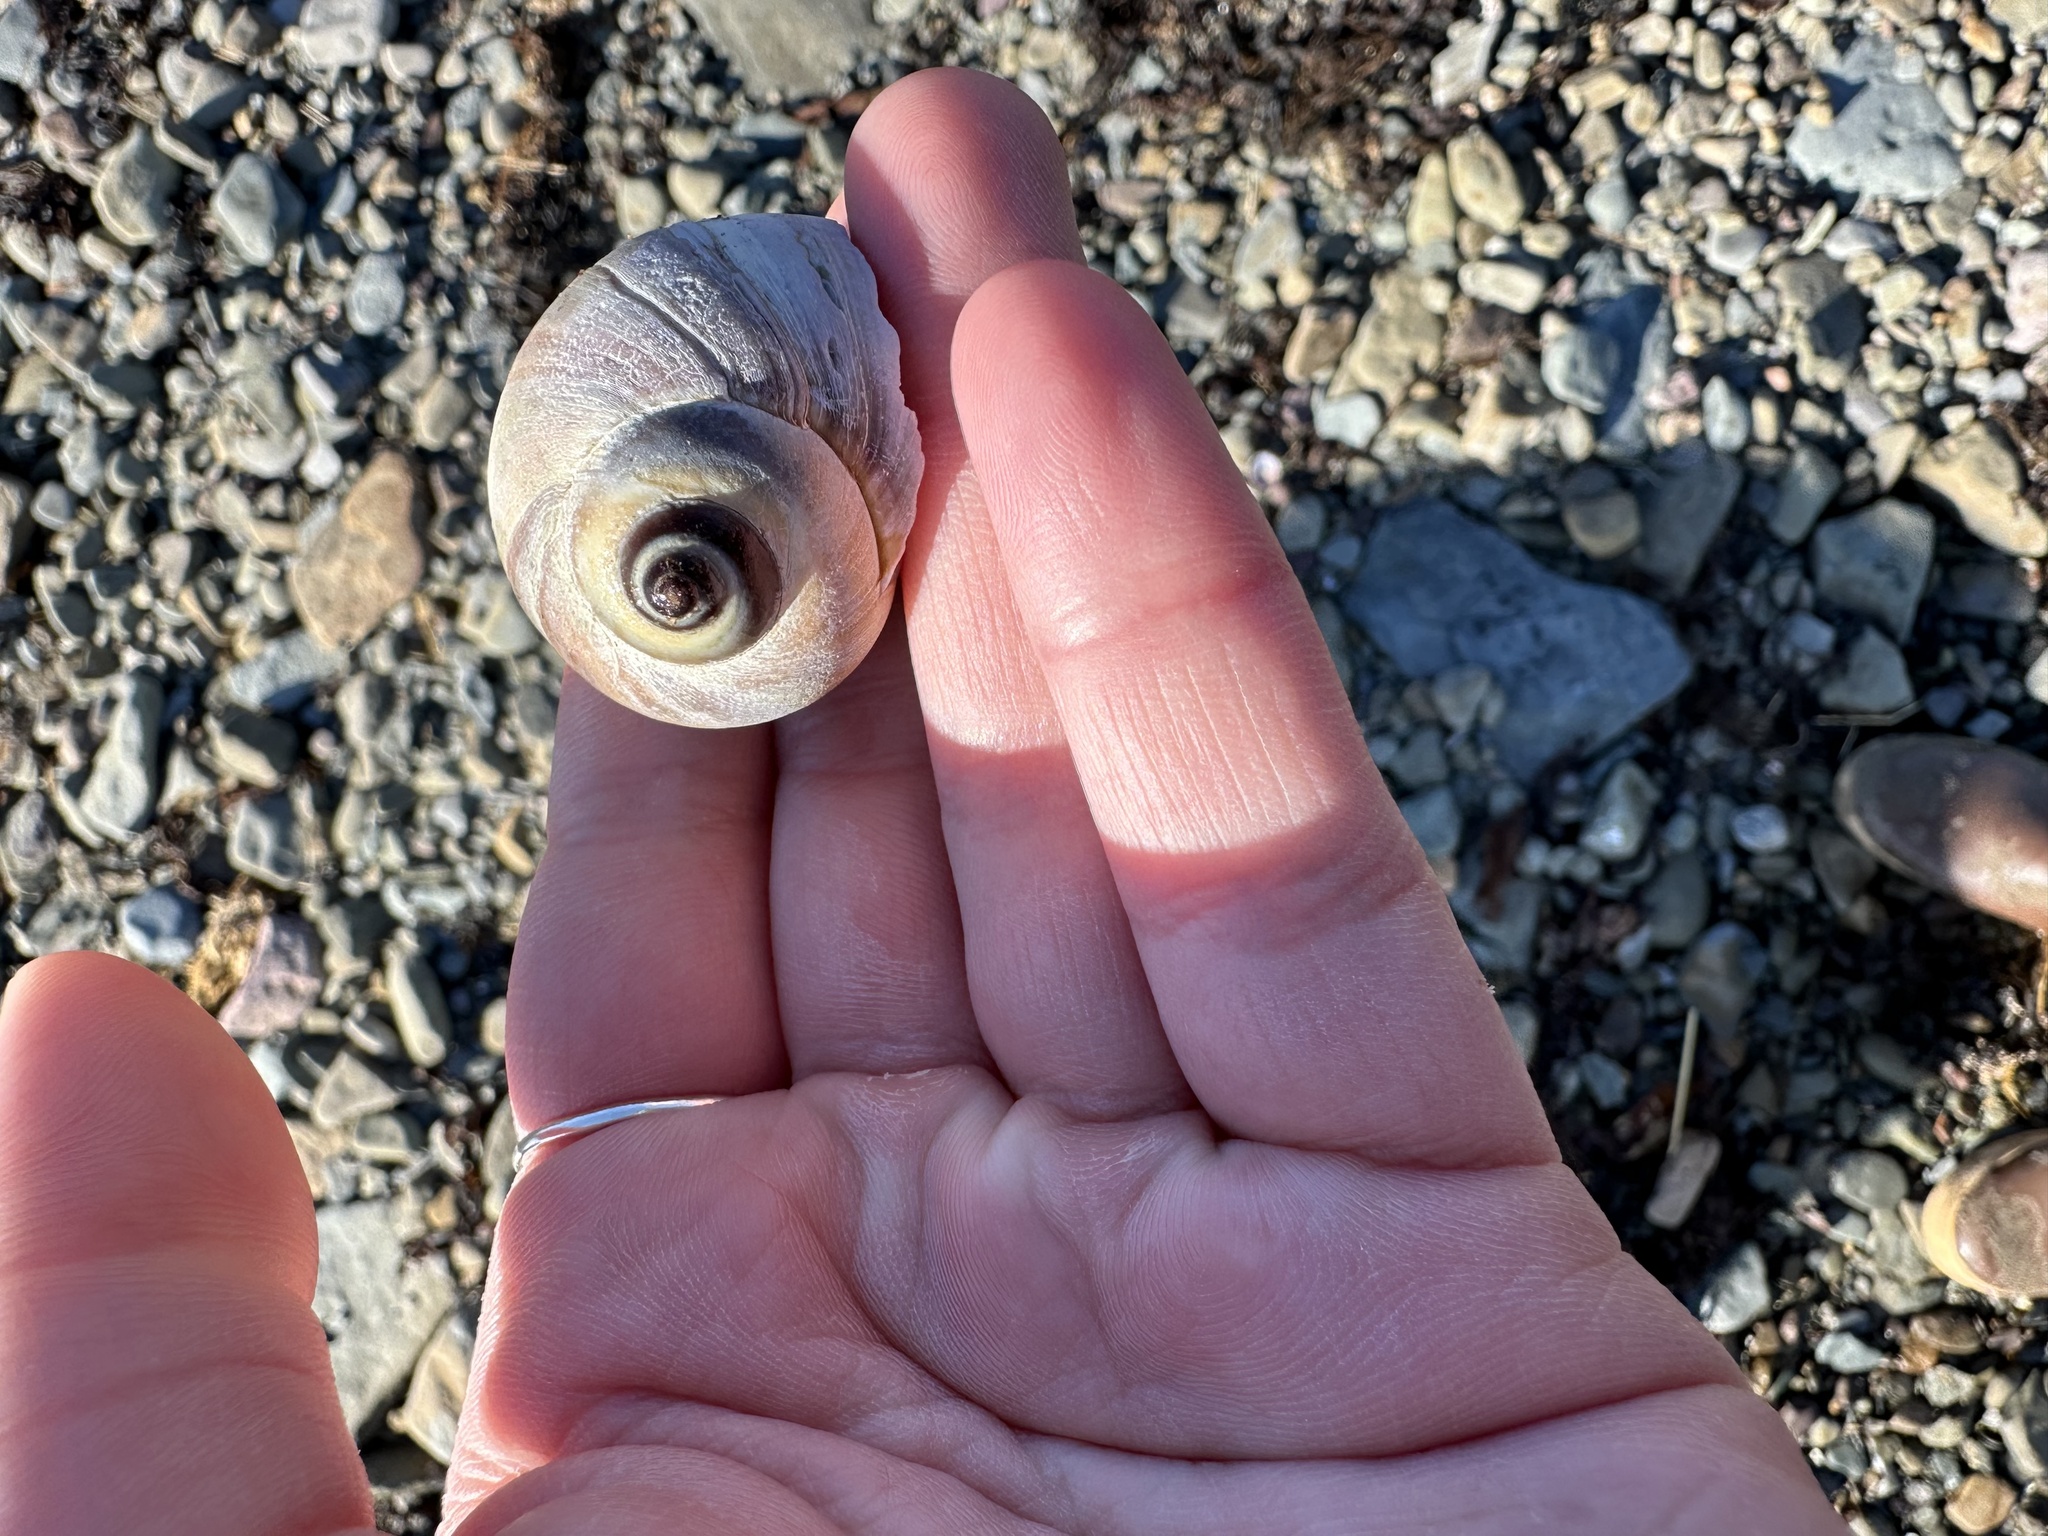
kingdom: Animalia
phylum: Mollusca
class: Gastropoda
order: Littorinimorpha
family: Naticidae
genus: Euspira
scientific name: Euspira heros
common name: Common northern moonsnail
